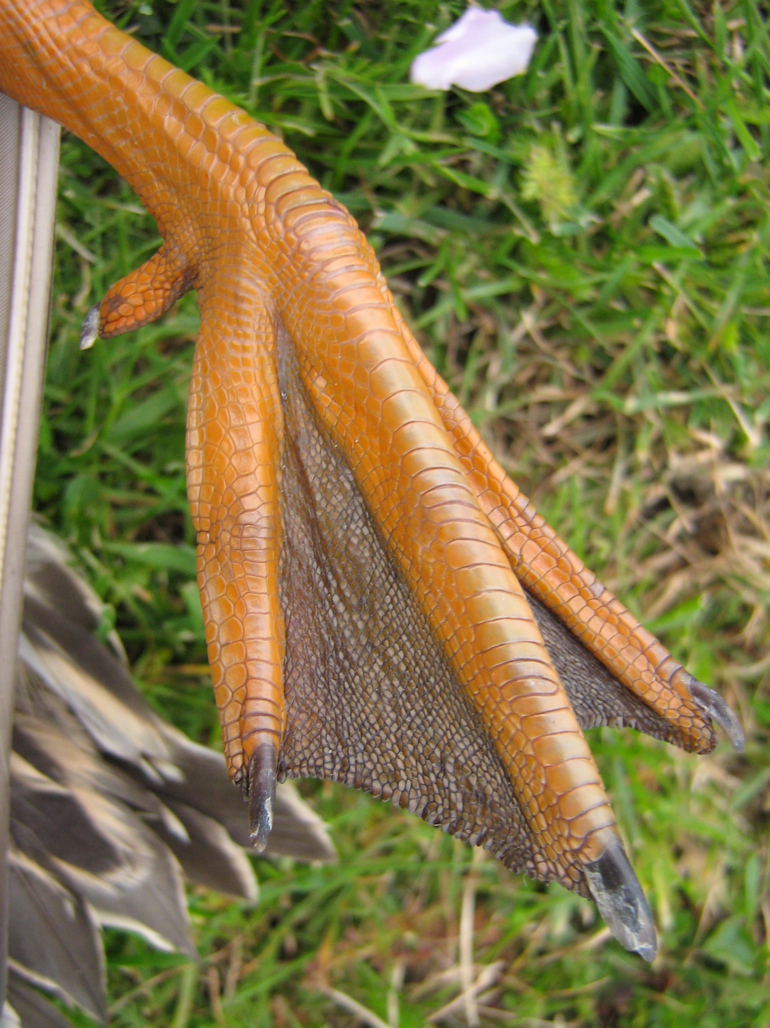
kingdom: Animalia
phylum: Chordata
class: Aves
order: Anseriformes
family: Anatidae
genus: Anas
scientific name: Anas
